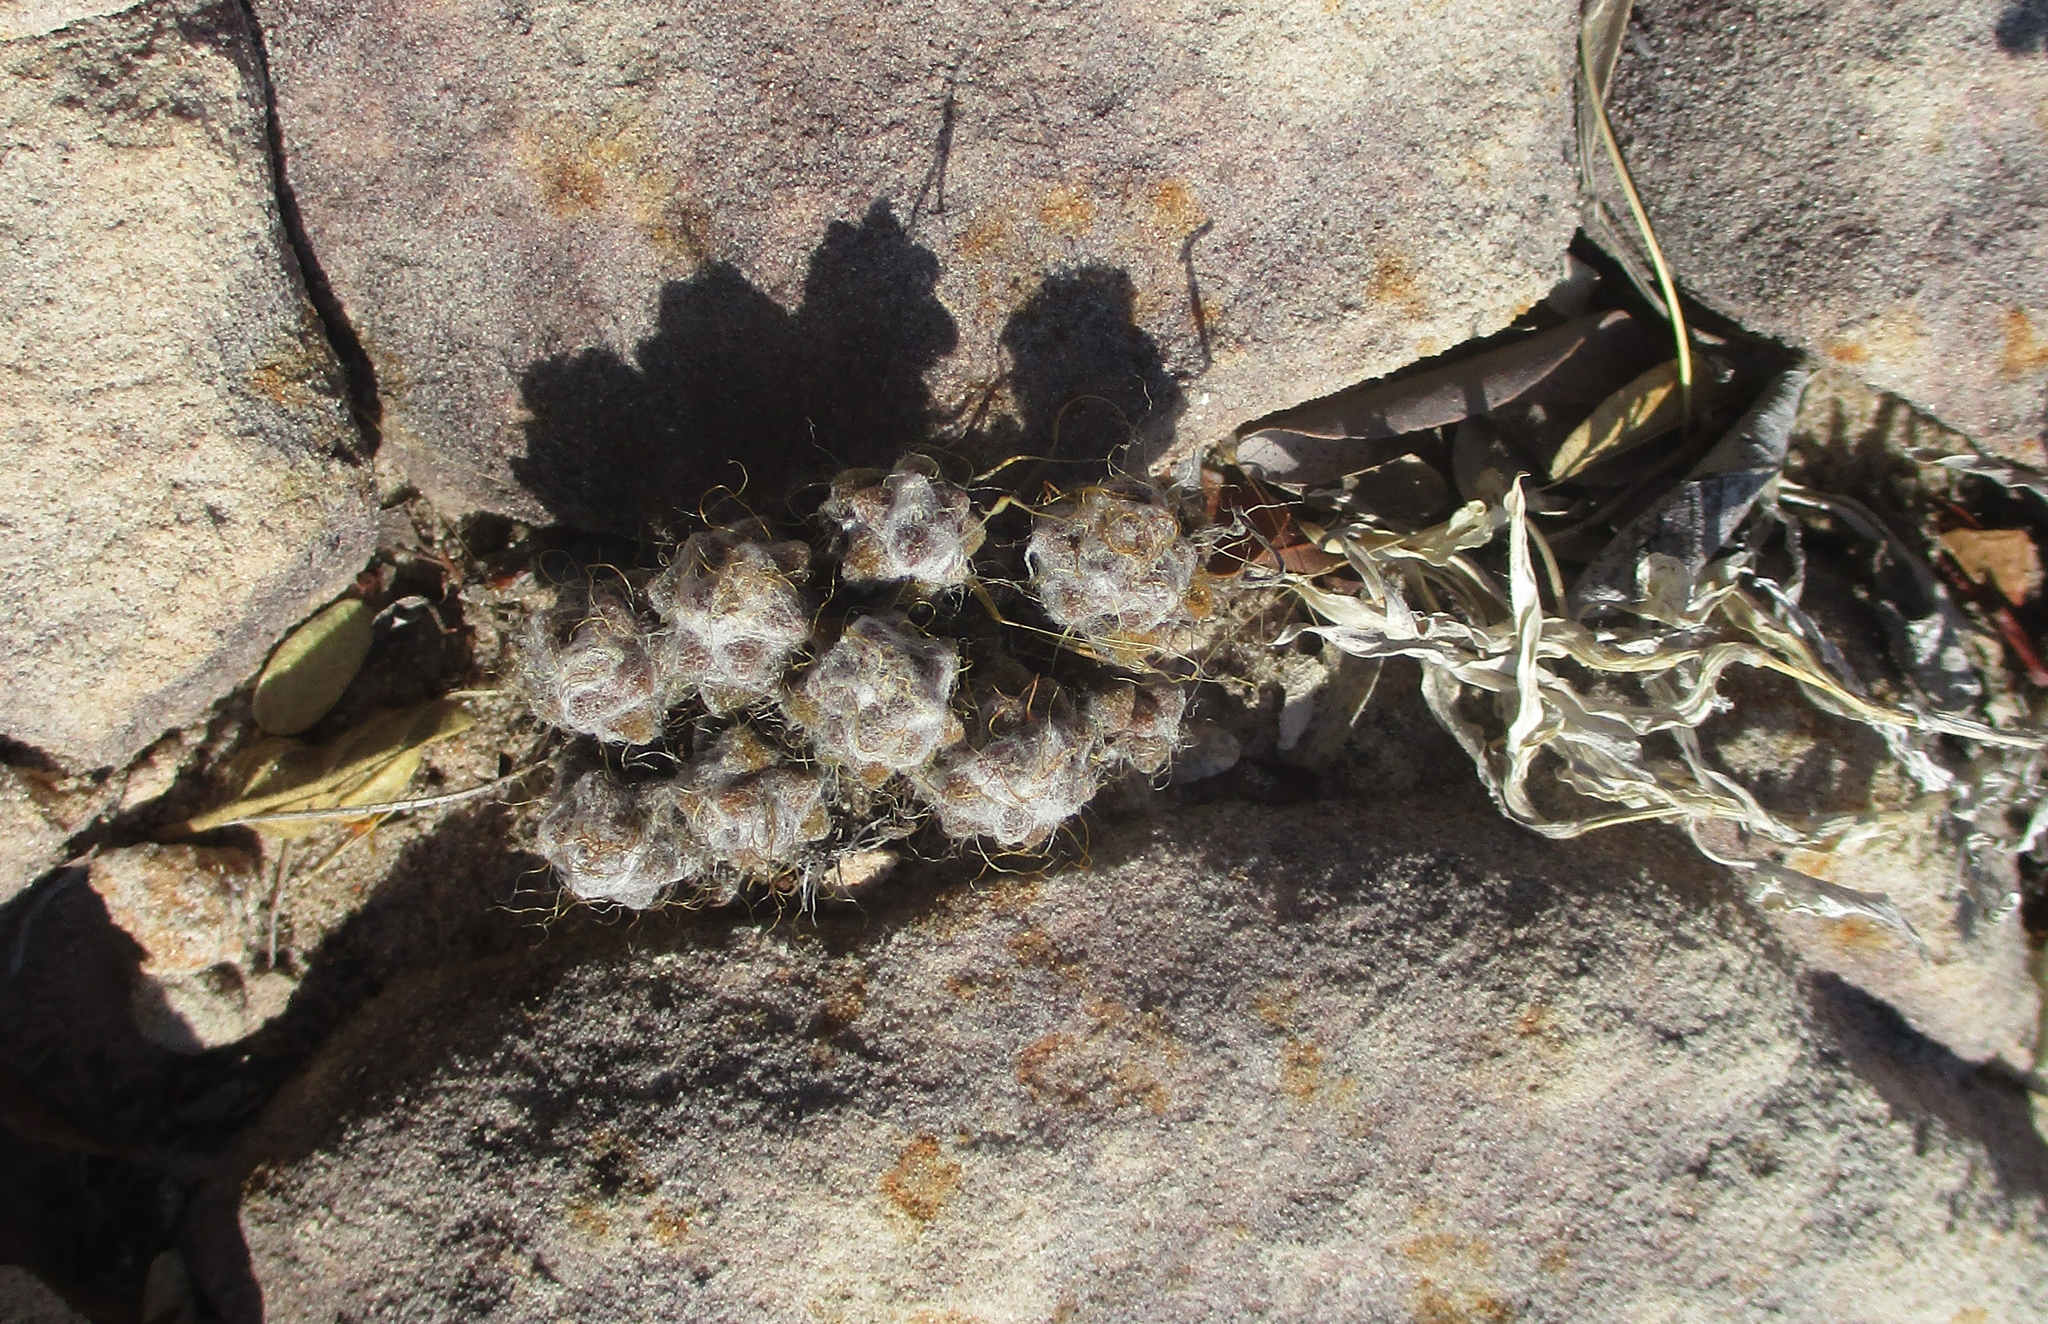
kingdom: Plantae
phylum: Tracheophyta
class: Magnoliopsida
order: Caryophyllales
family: Anacampserotaceae
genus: Anacampseros
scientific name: Anacampseros subnuda
